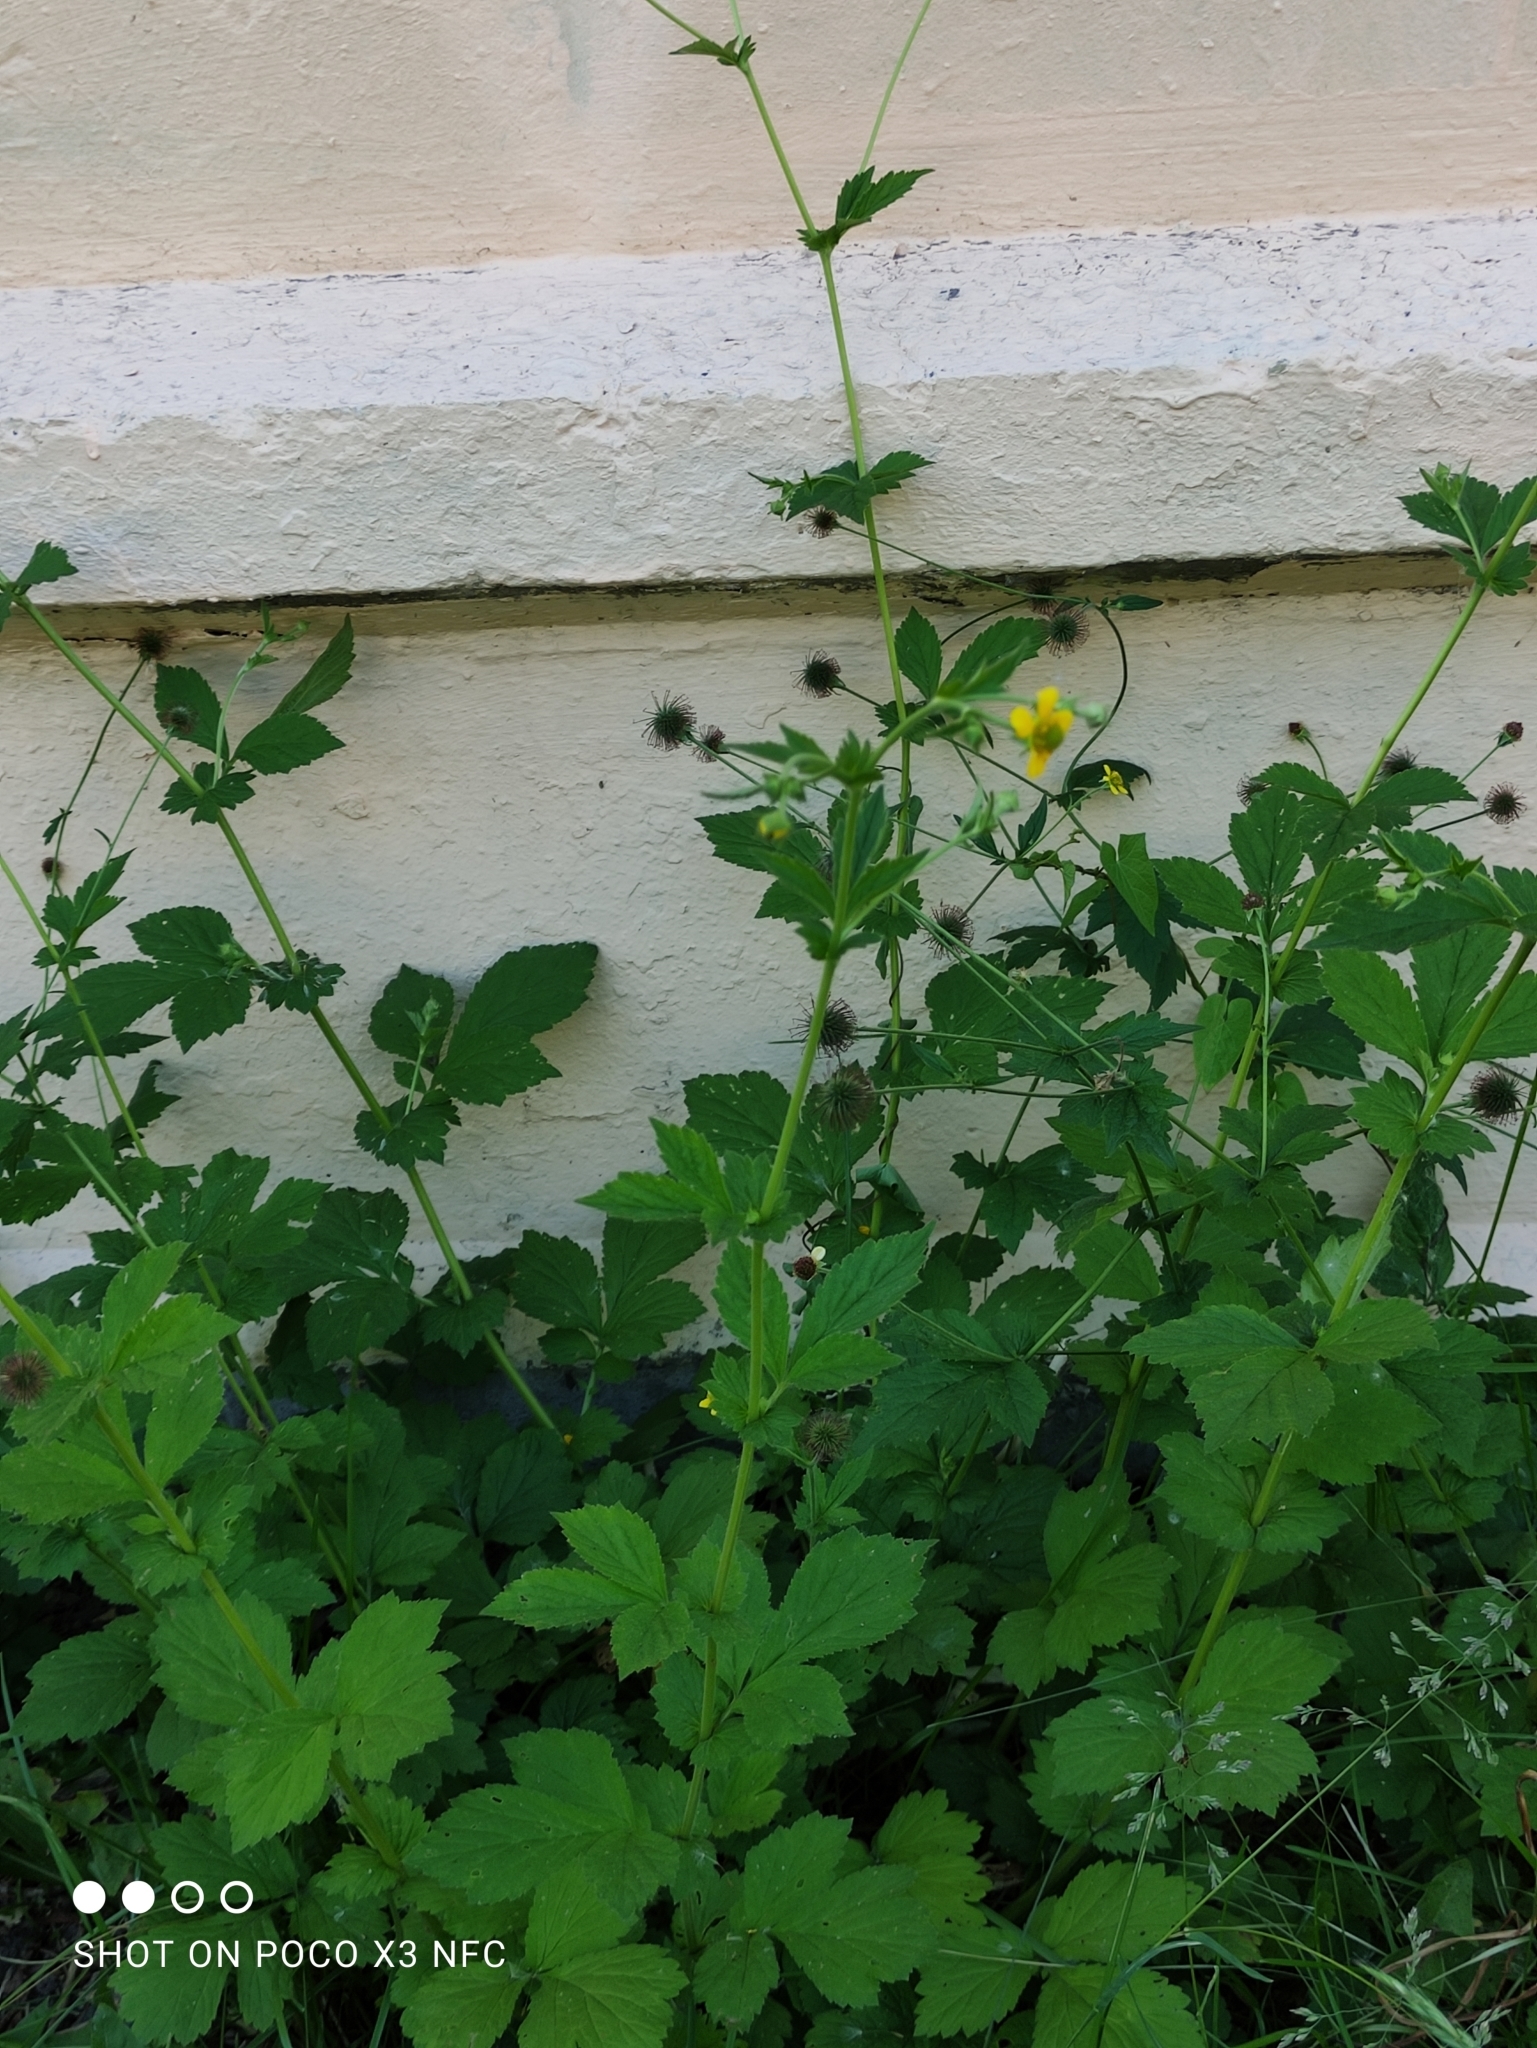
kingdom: Plantae
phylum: Tracheophyta
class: Magnoliopsida
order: Rosales
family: Rosaceae
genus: Geum
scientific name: Geum urbanum
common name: Wood avens
